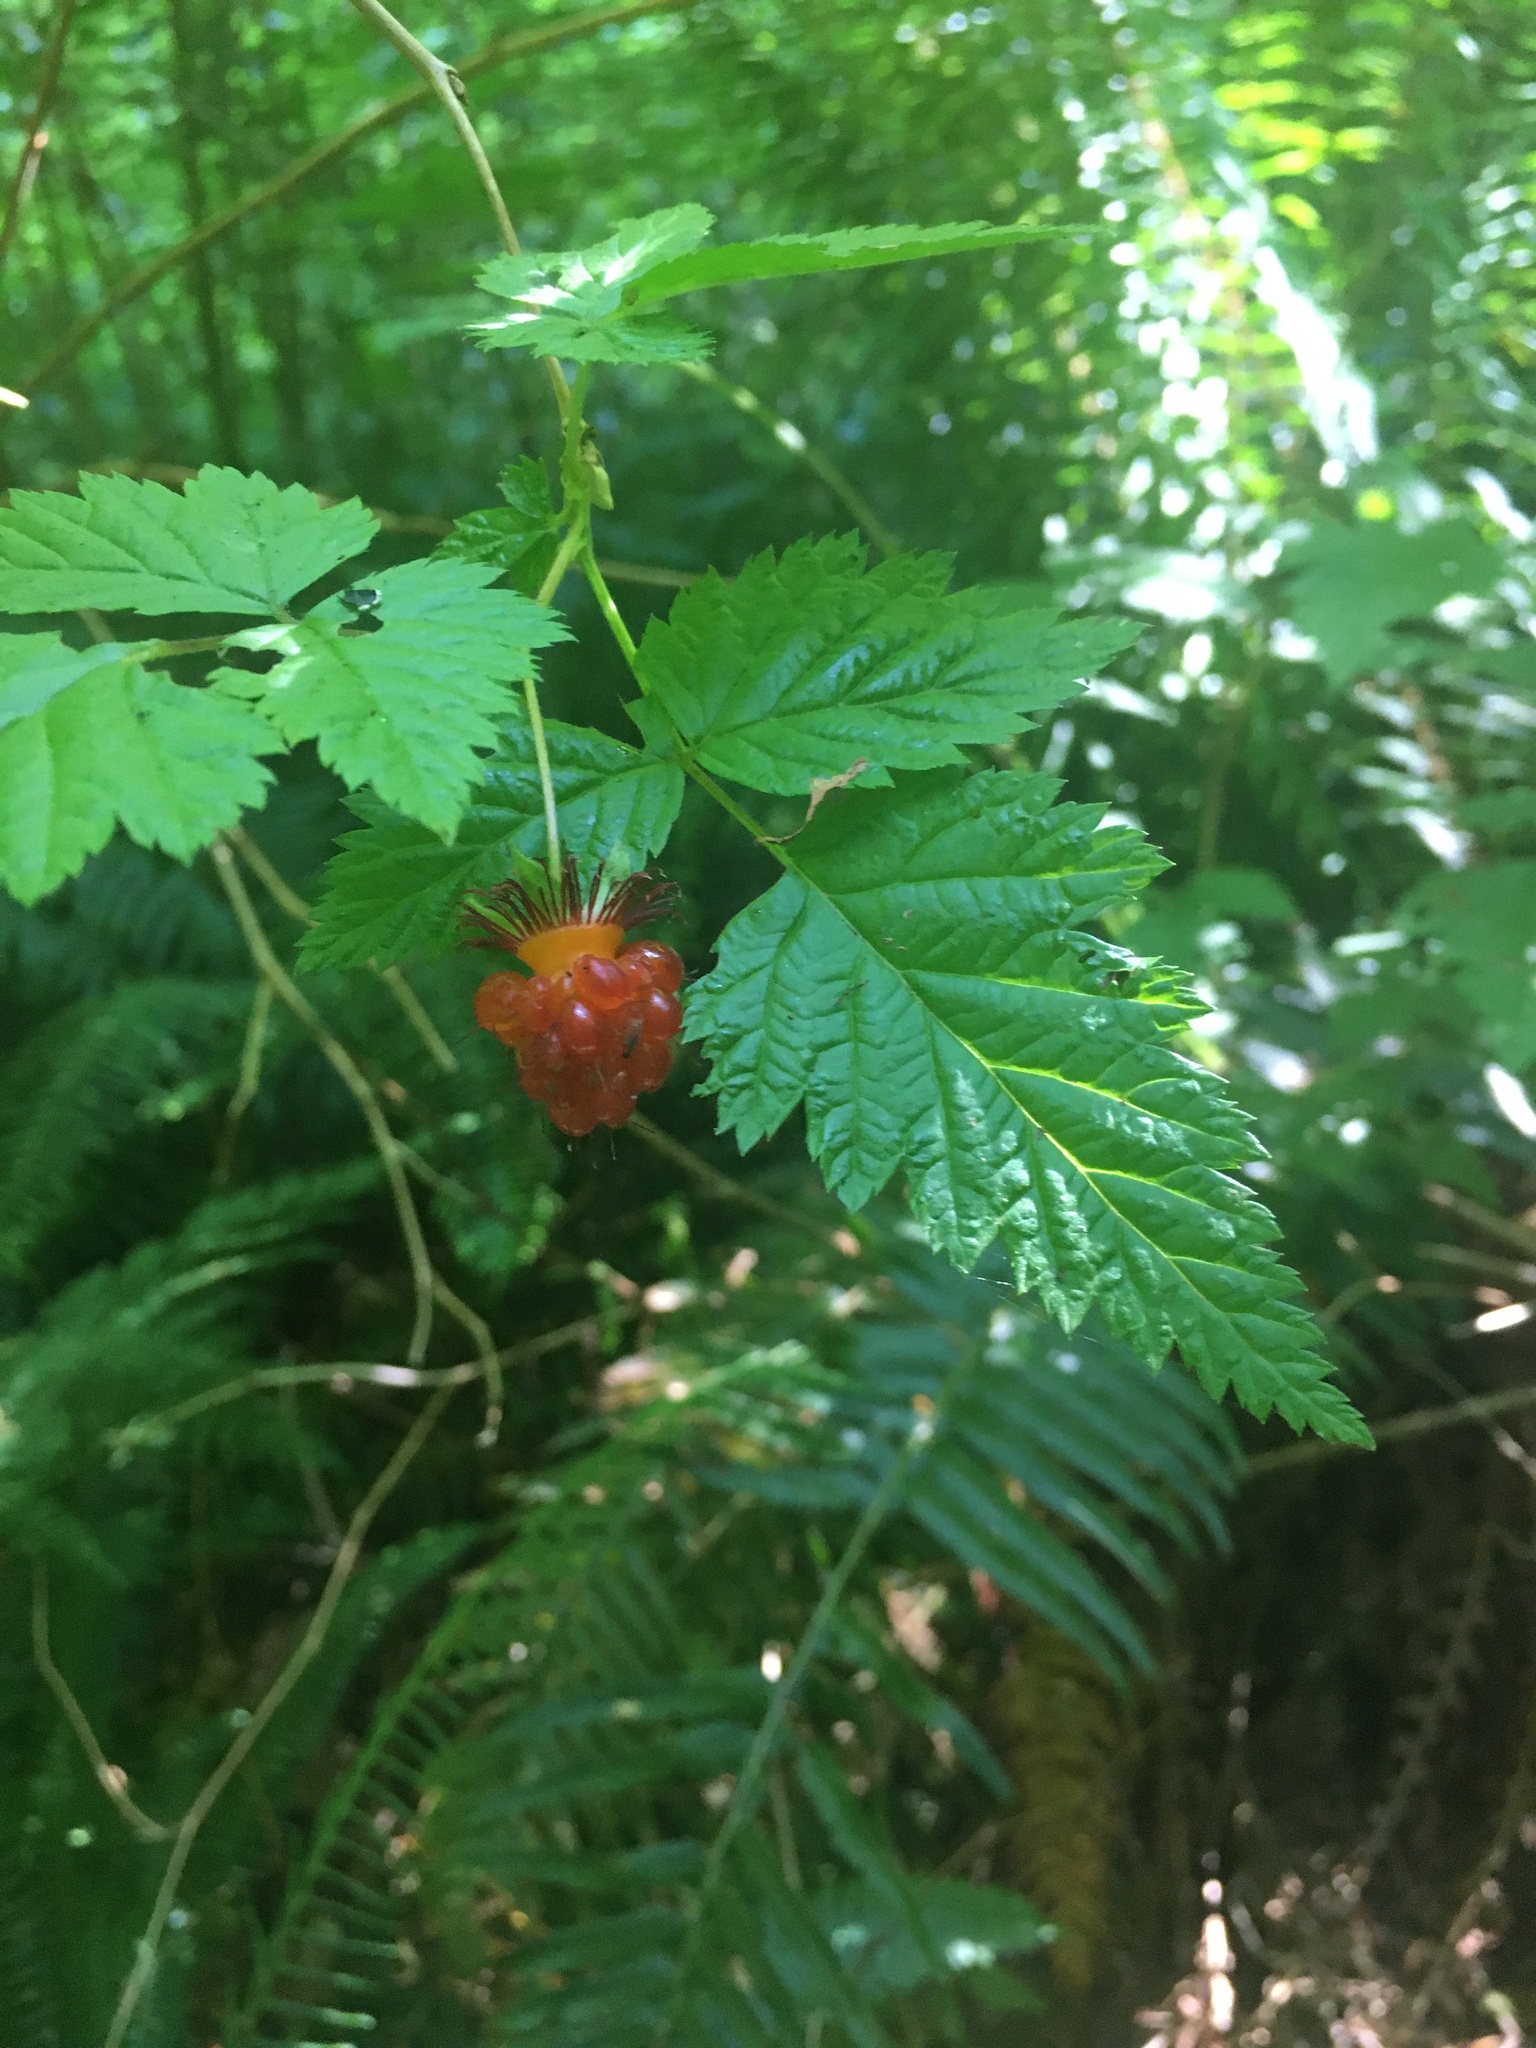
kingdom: Plantae
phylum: Tracheophyta
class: Magnoliopsida
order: Rosales
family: Rosaceae
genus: Rubus
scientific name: Rubus spectabilis
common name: Salmonberry
